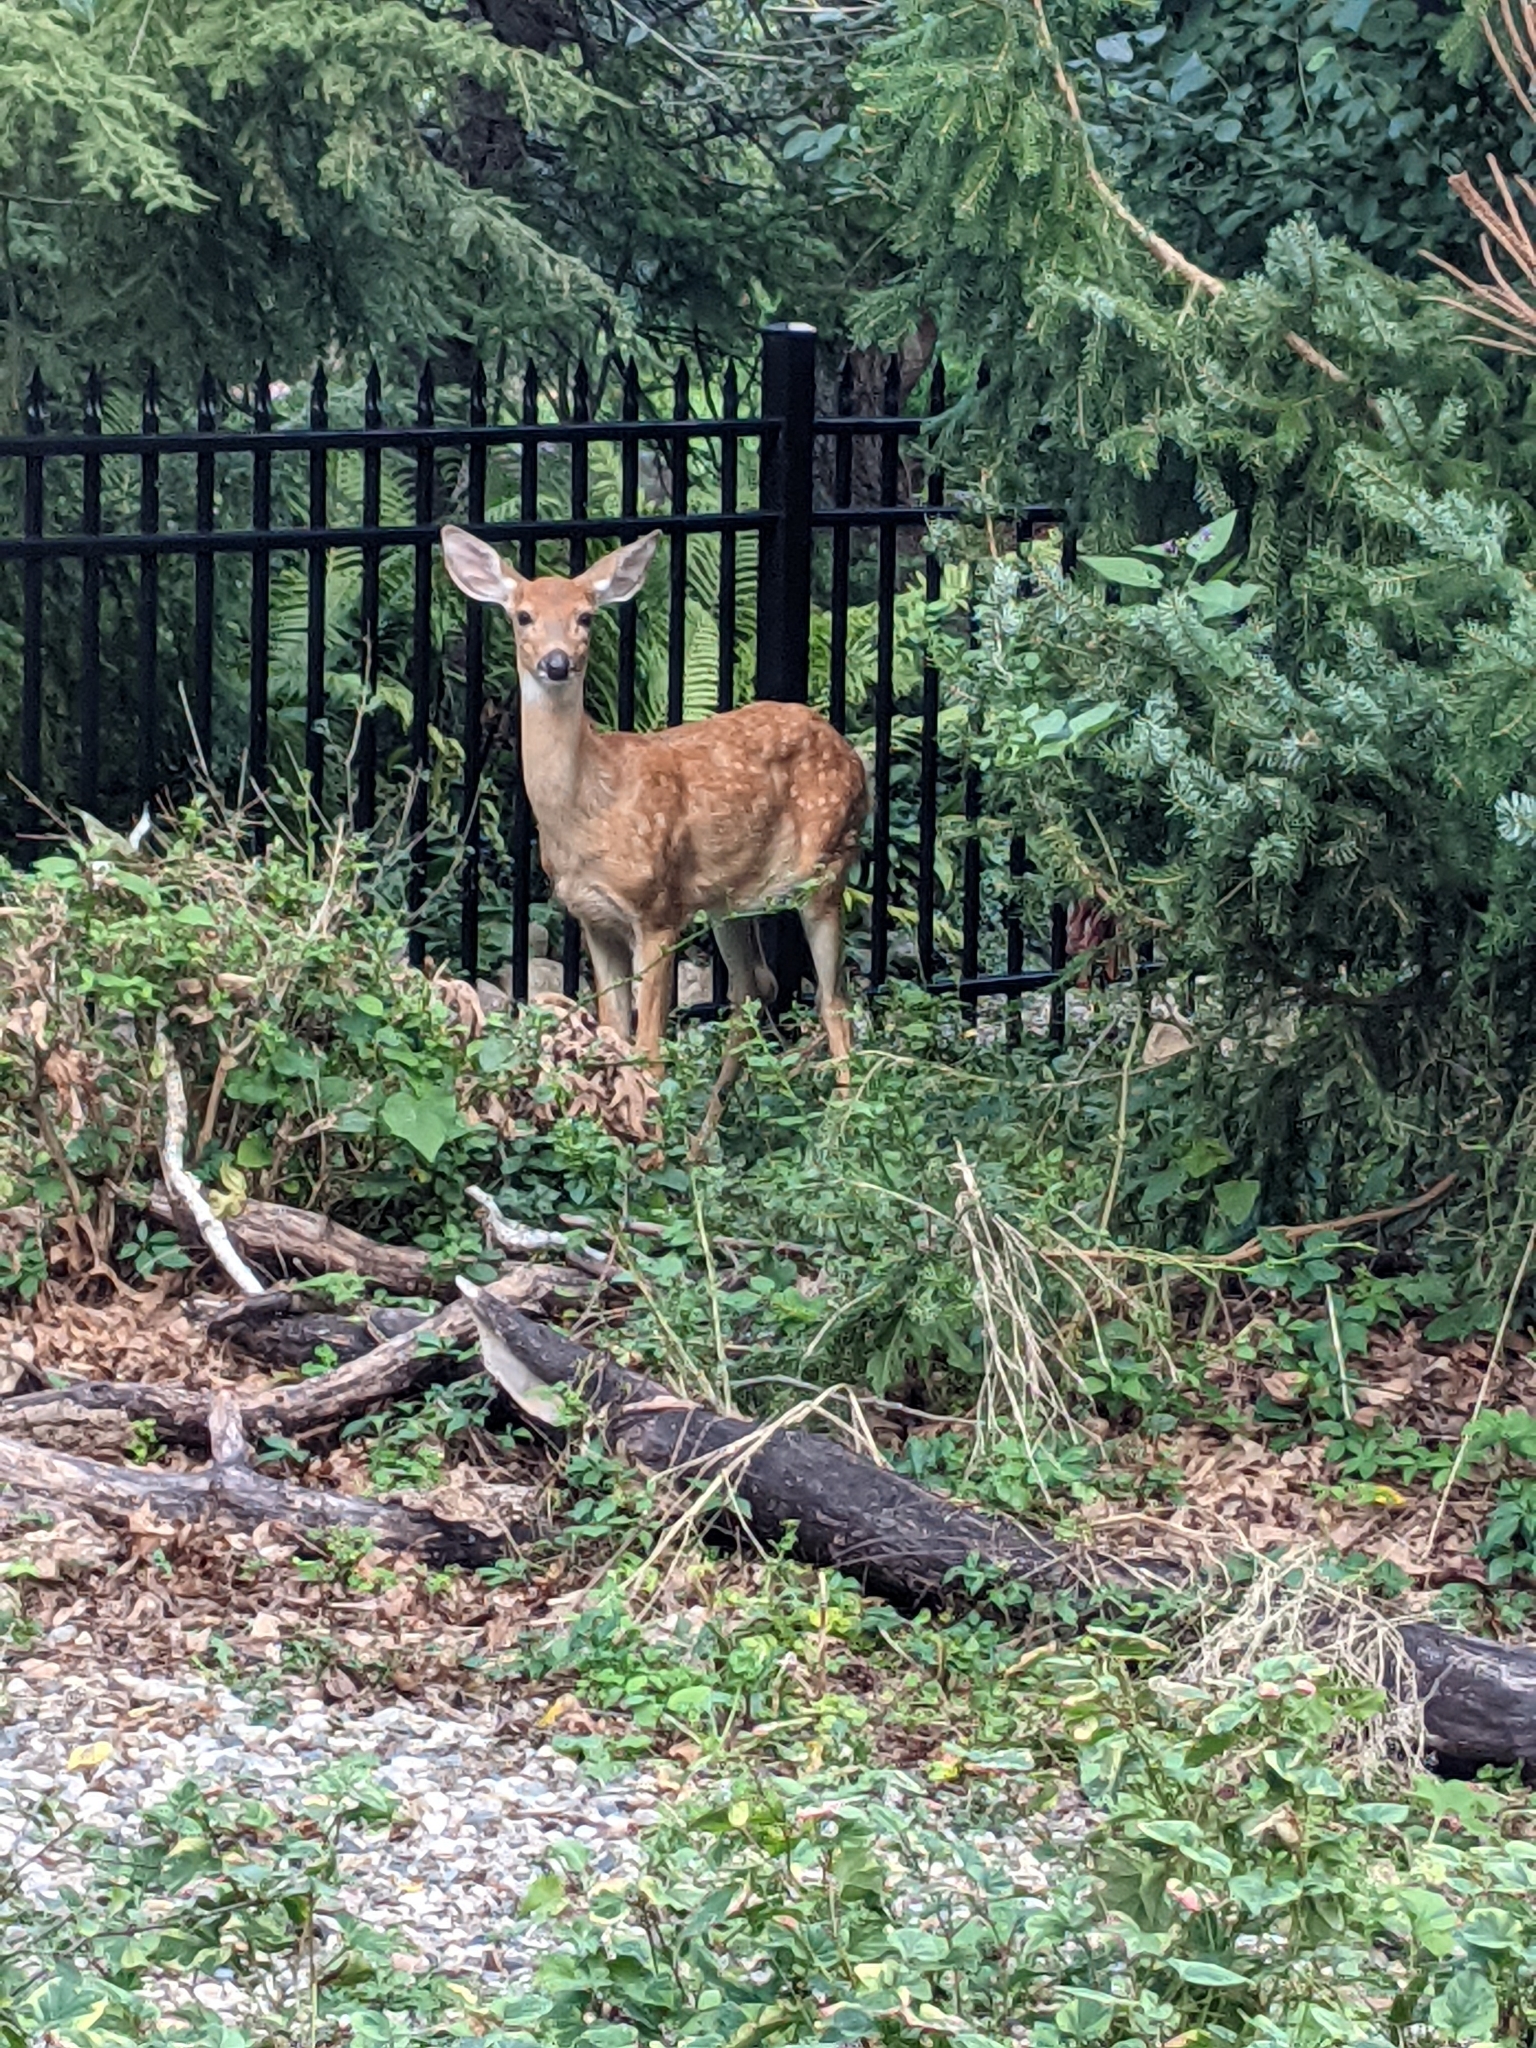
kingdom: Animalia
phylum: Chordata
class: Mammalia
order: Artiodactyla
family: Cervidae
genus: Odocoileus
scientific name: Odocoileus virginianus
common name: White-tailed deer
